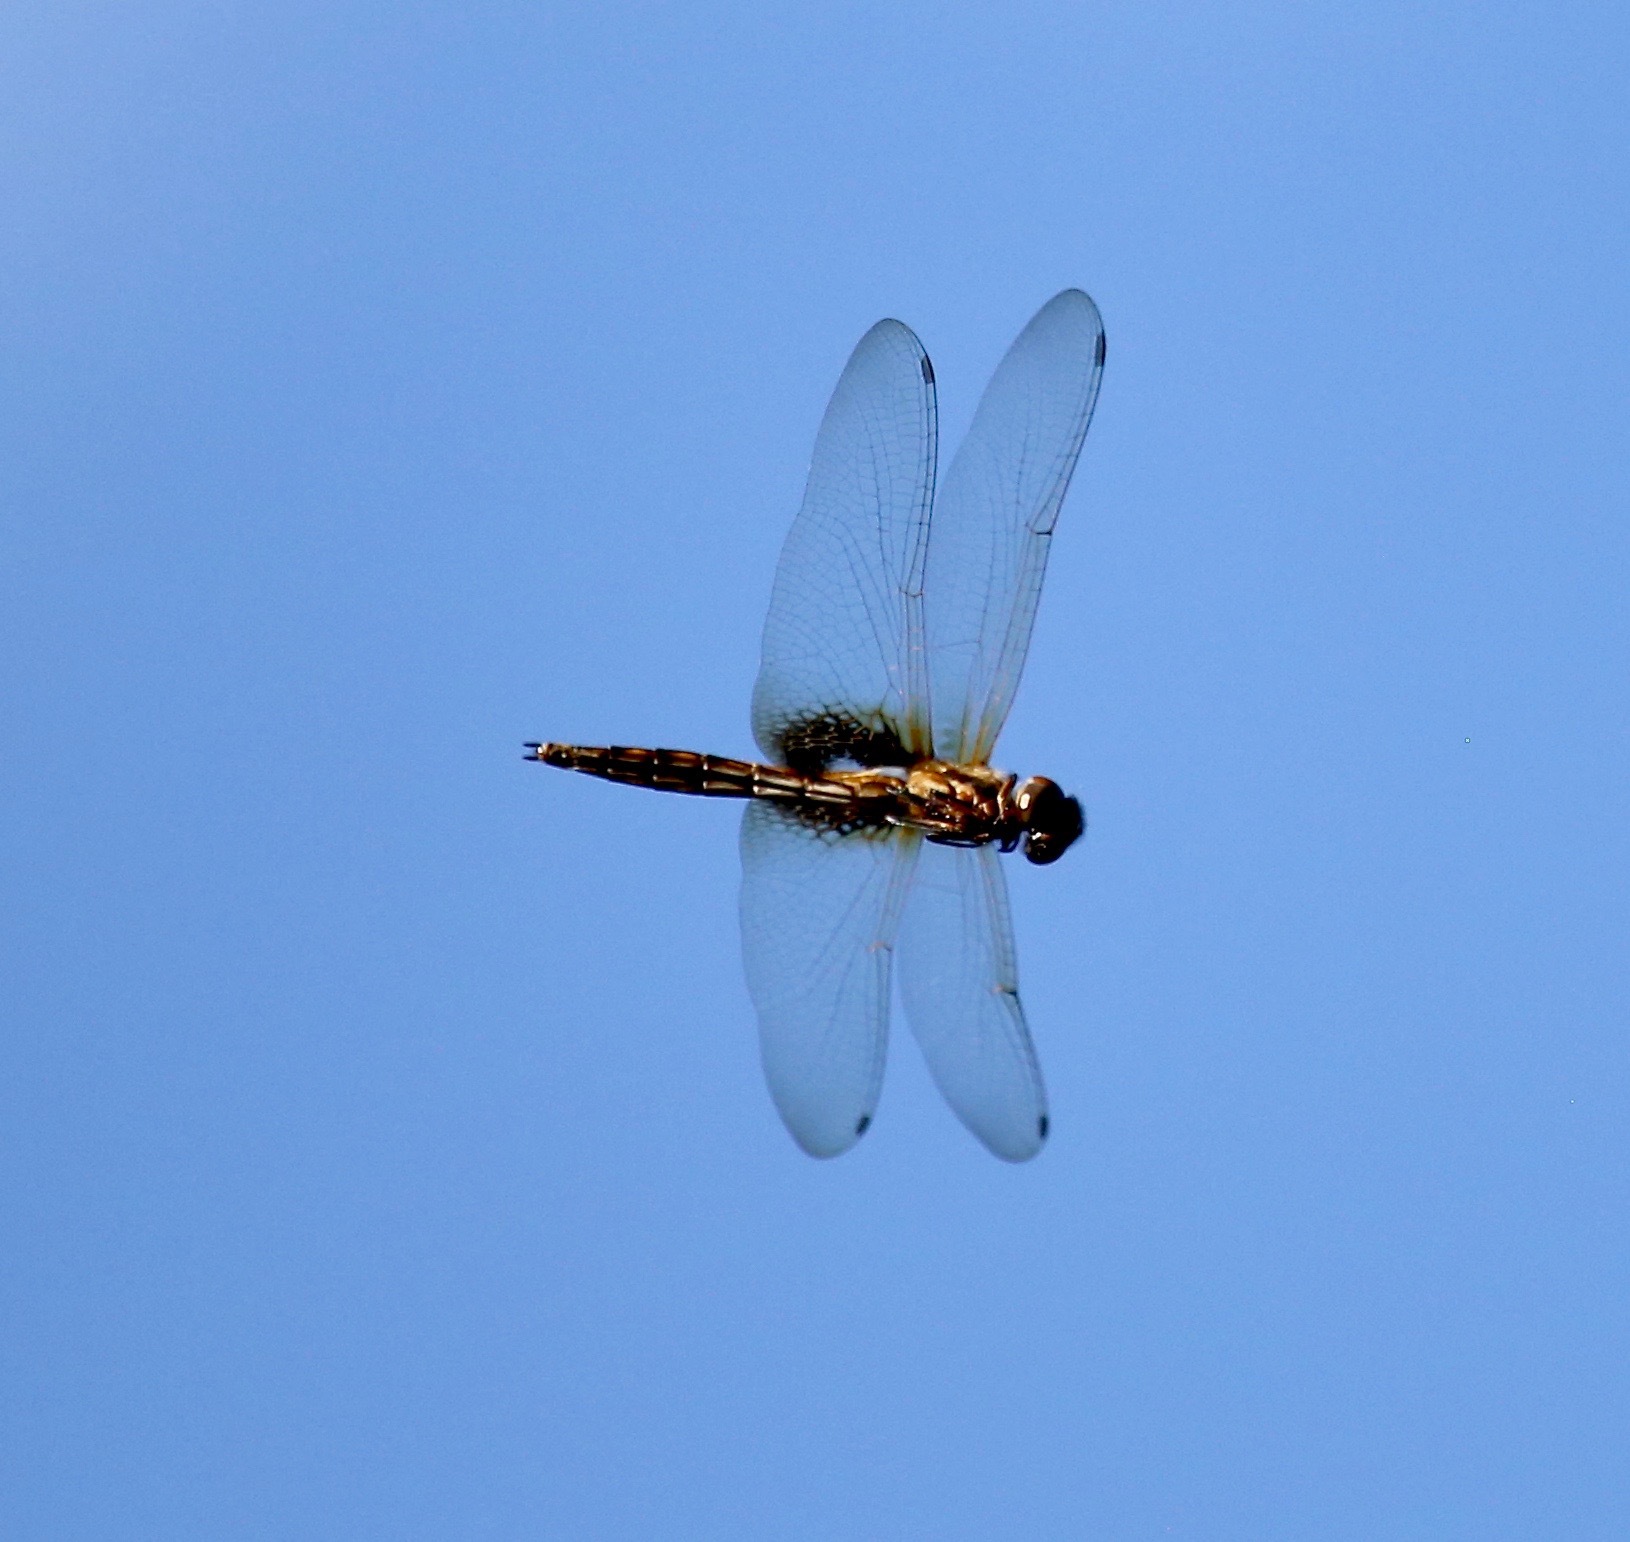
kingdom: Animalia
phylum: Arthropoda
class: Insecta
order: Odonata
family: Libellulidae
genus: Miathyria
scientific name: Miathyria marcella
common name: Hyacinth glider
